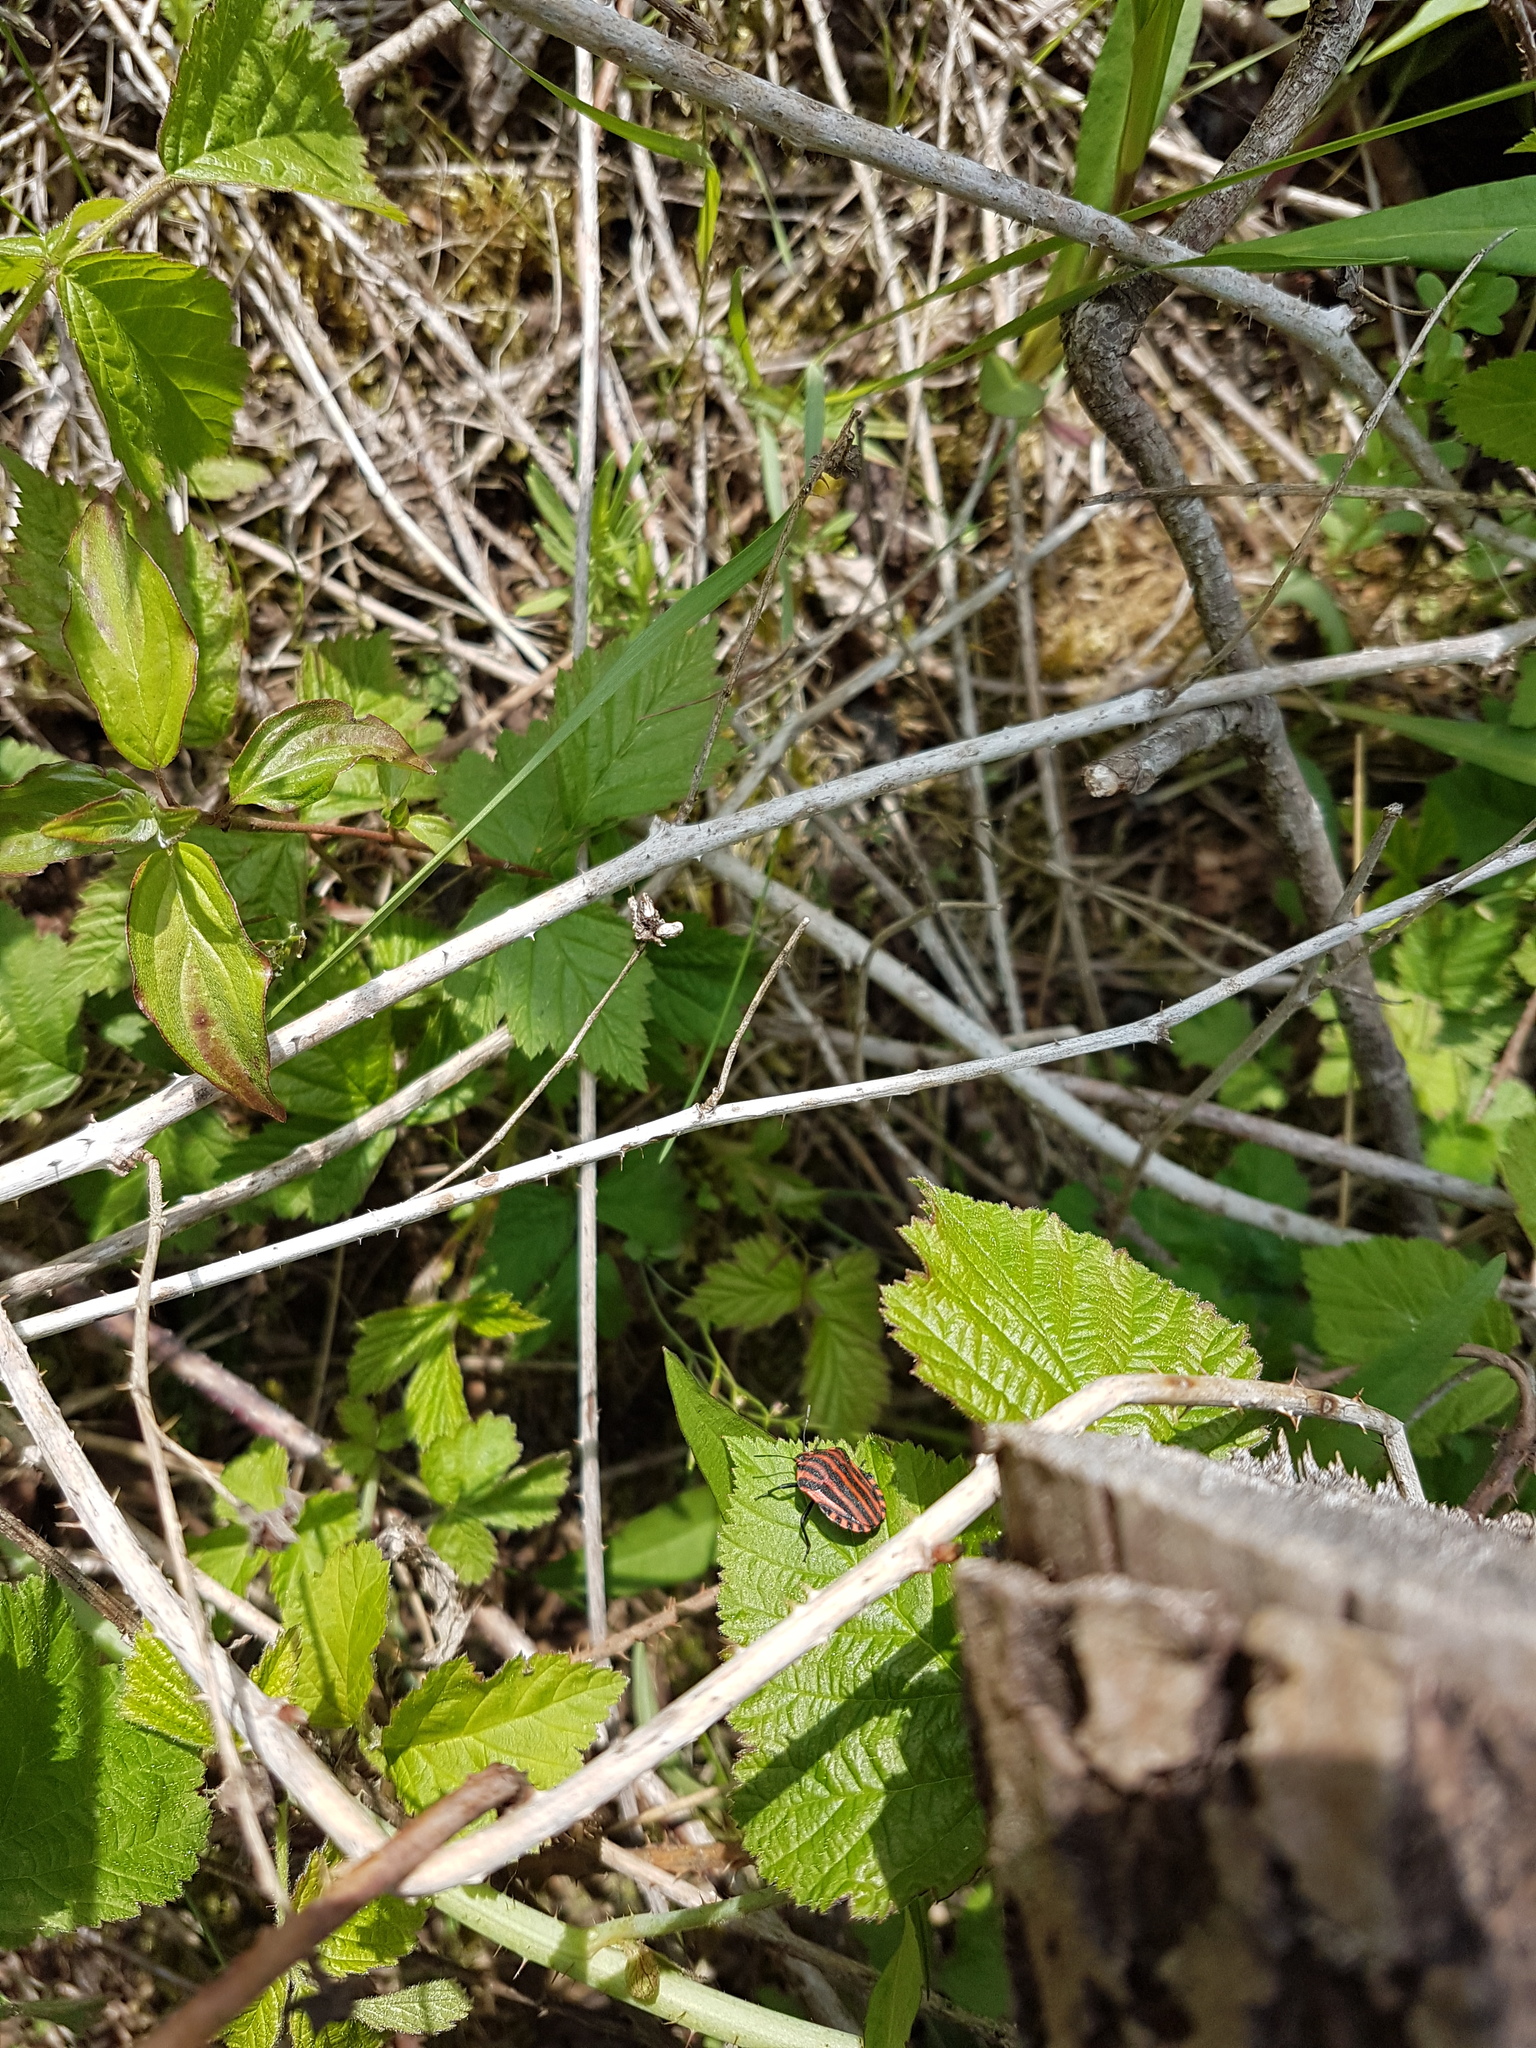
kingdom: Animalia
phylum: Arthropoda
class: Insecta
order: Hemiptera
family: Pentatomidae
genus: Graphosoma
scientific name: Graphosoma italicum
